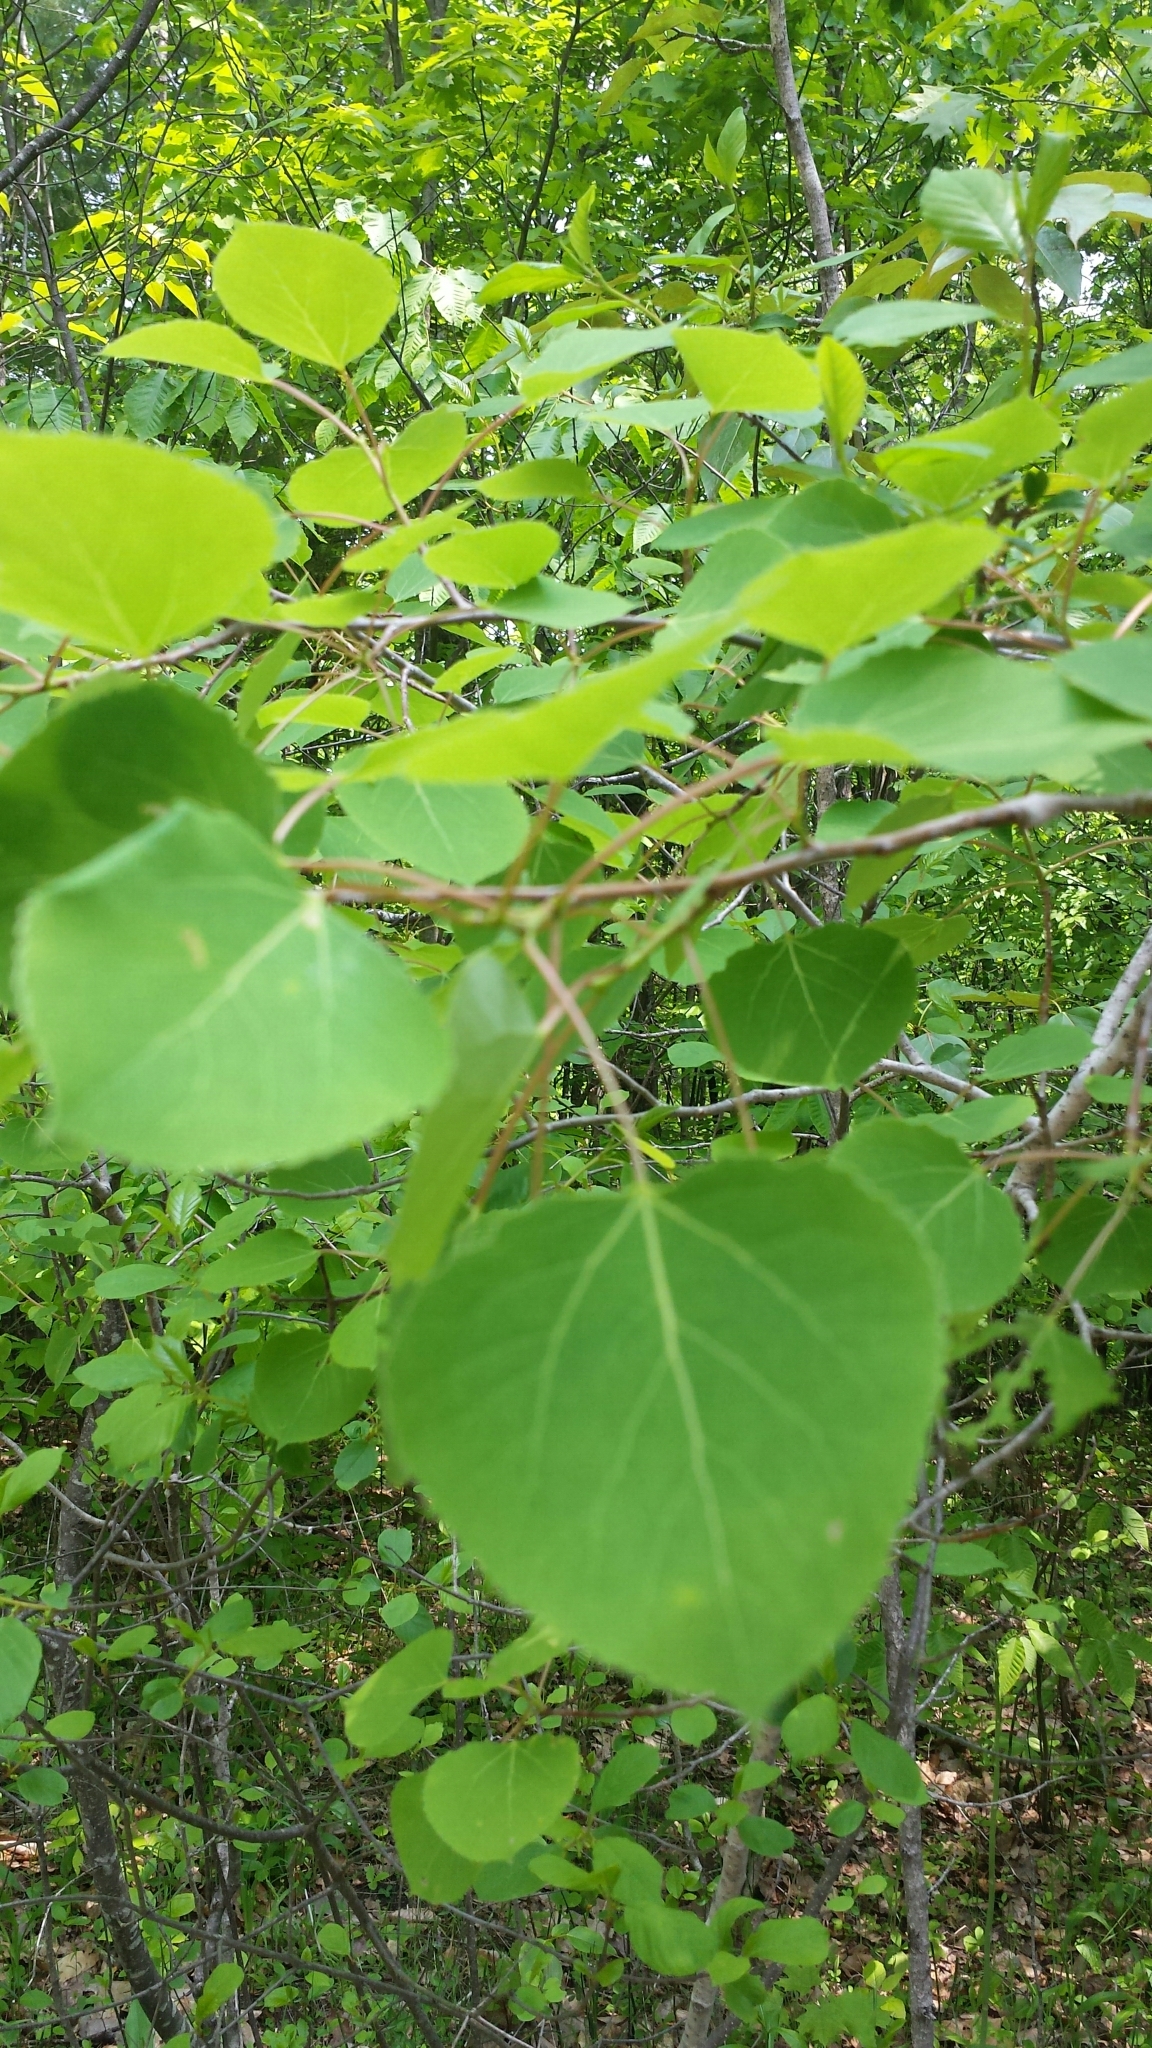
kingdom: Plantae
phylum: Tracheophyta
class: Magnoliopsida
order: Malpighiales
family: Salicaceae
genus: Populus
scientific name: Populus tremuloides
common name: Quaking aspen
